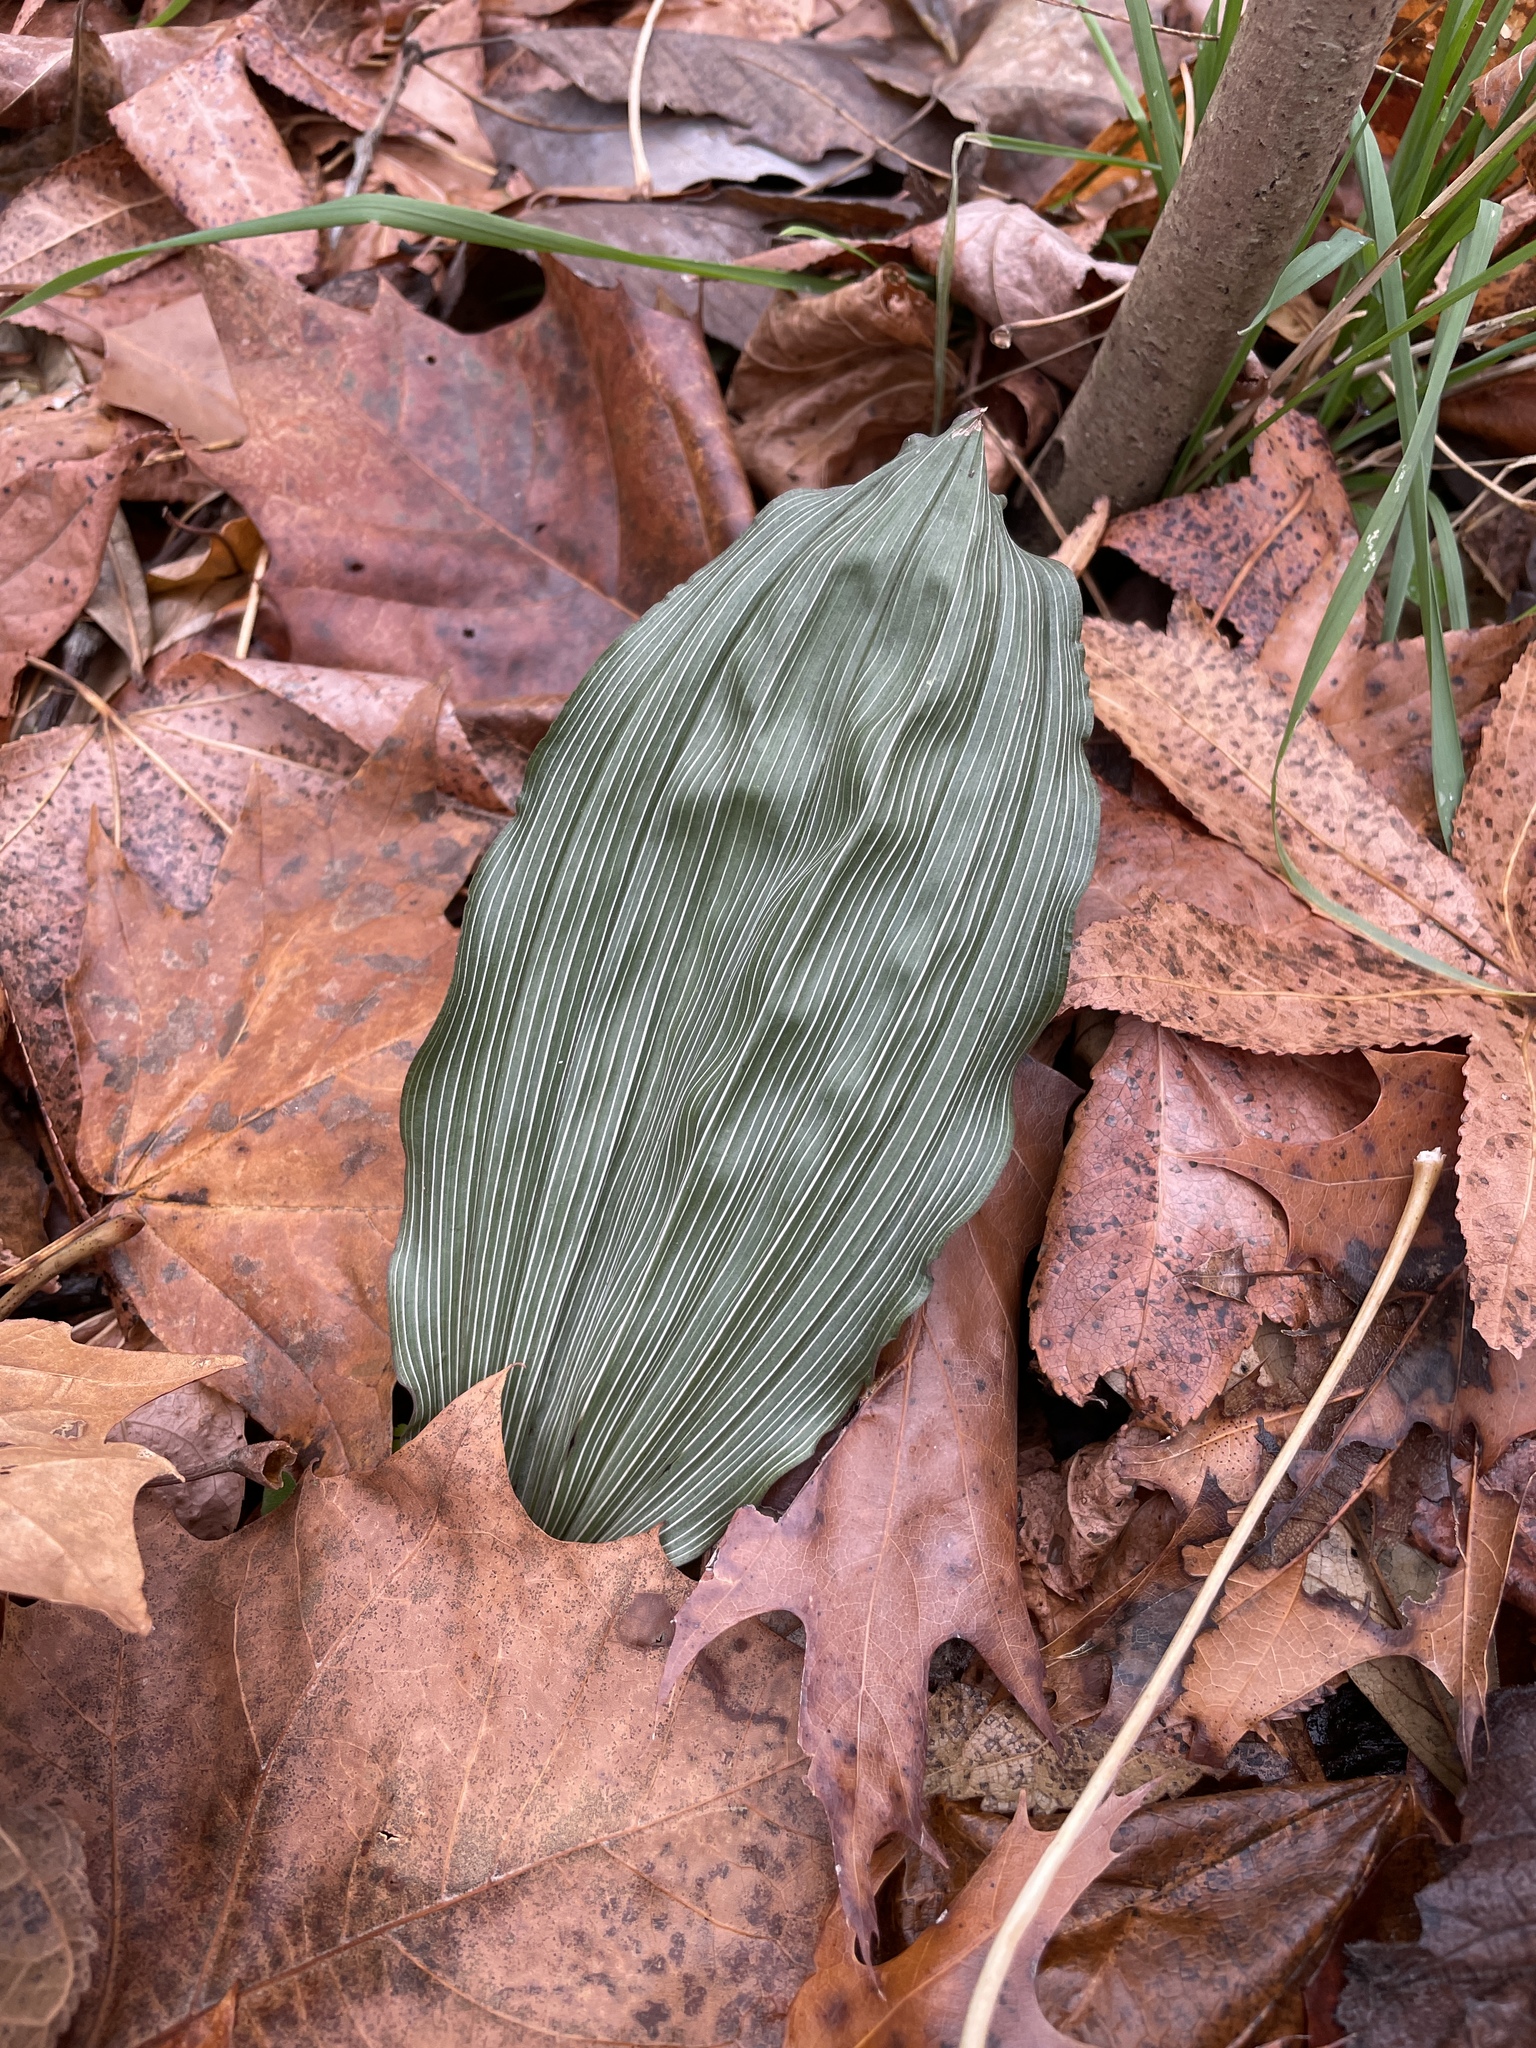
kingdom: Plantae
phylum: Tracheophyta
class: Liliopsida
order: Asparagales
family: Orchidaceae
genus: Aplectrum
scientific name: Aplectrum hyemale
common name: Adam-and-eve
